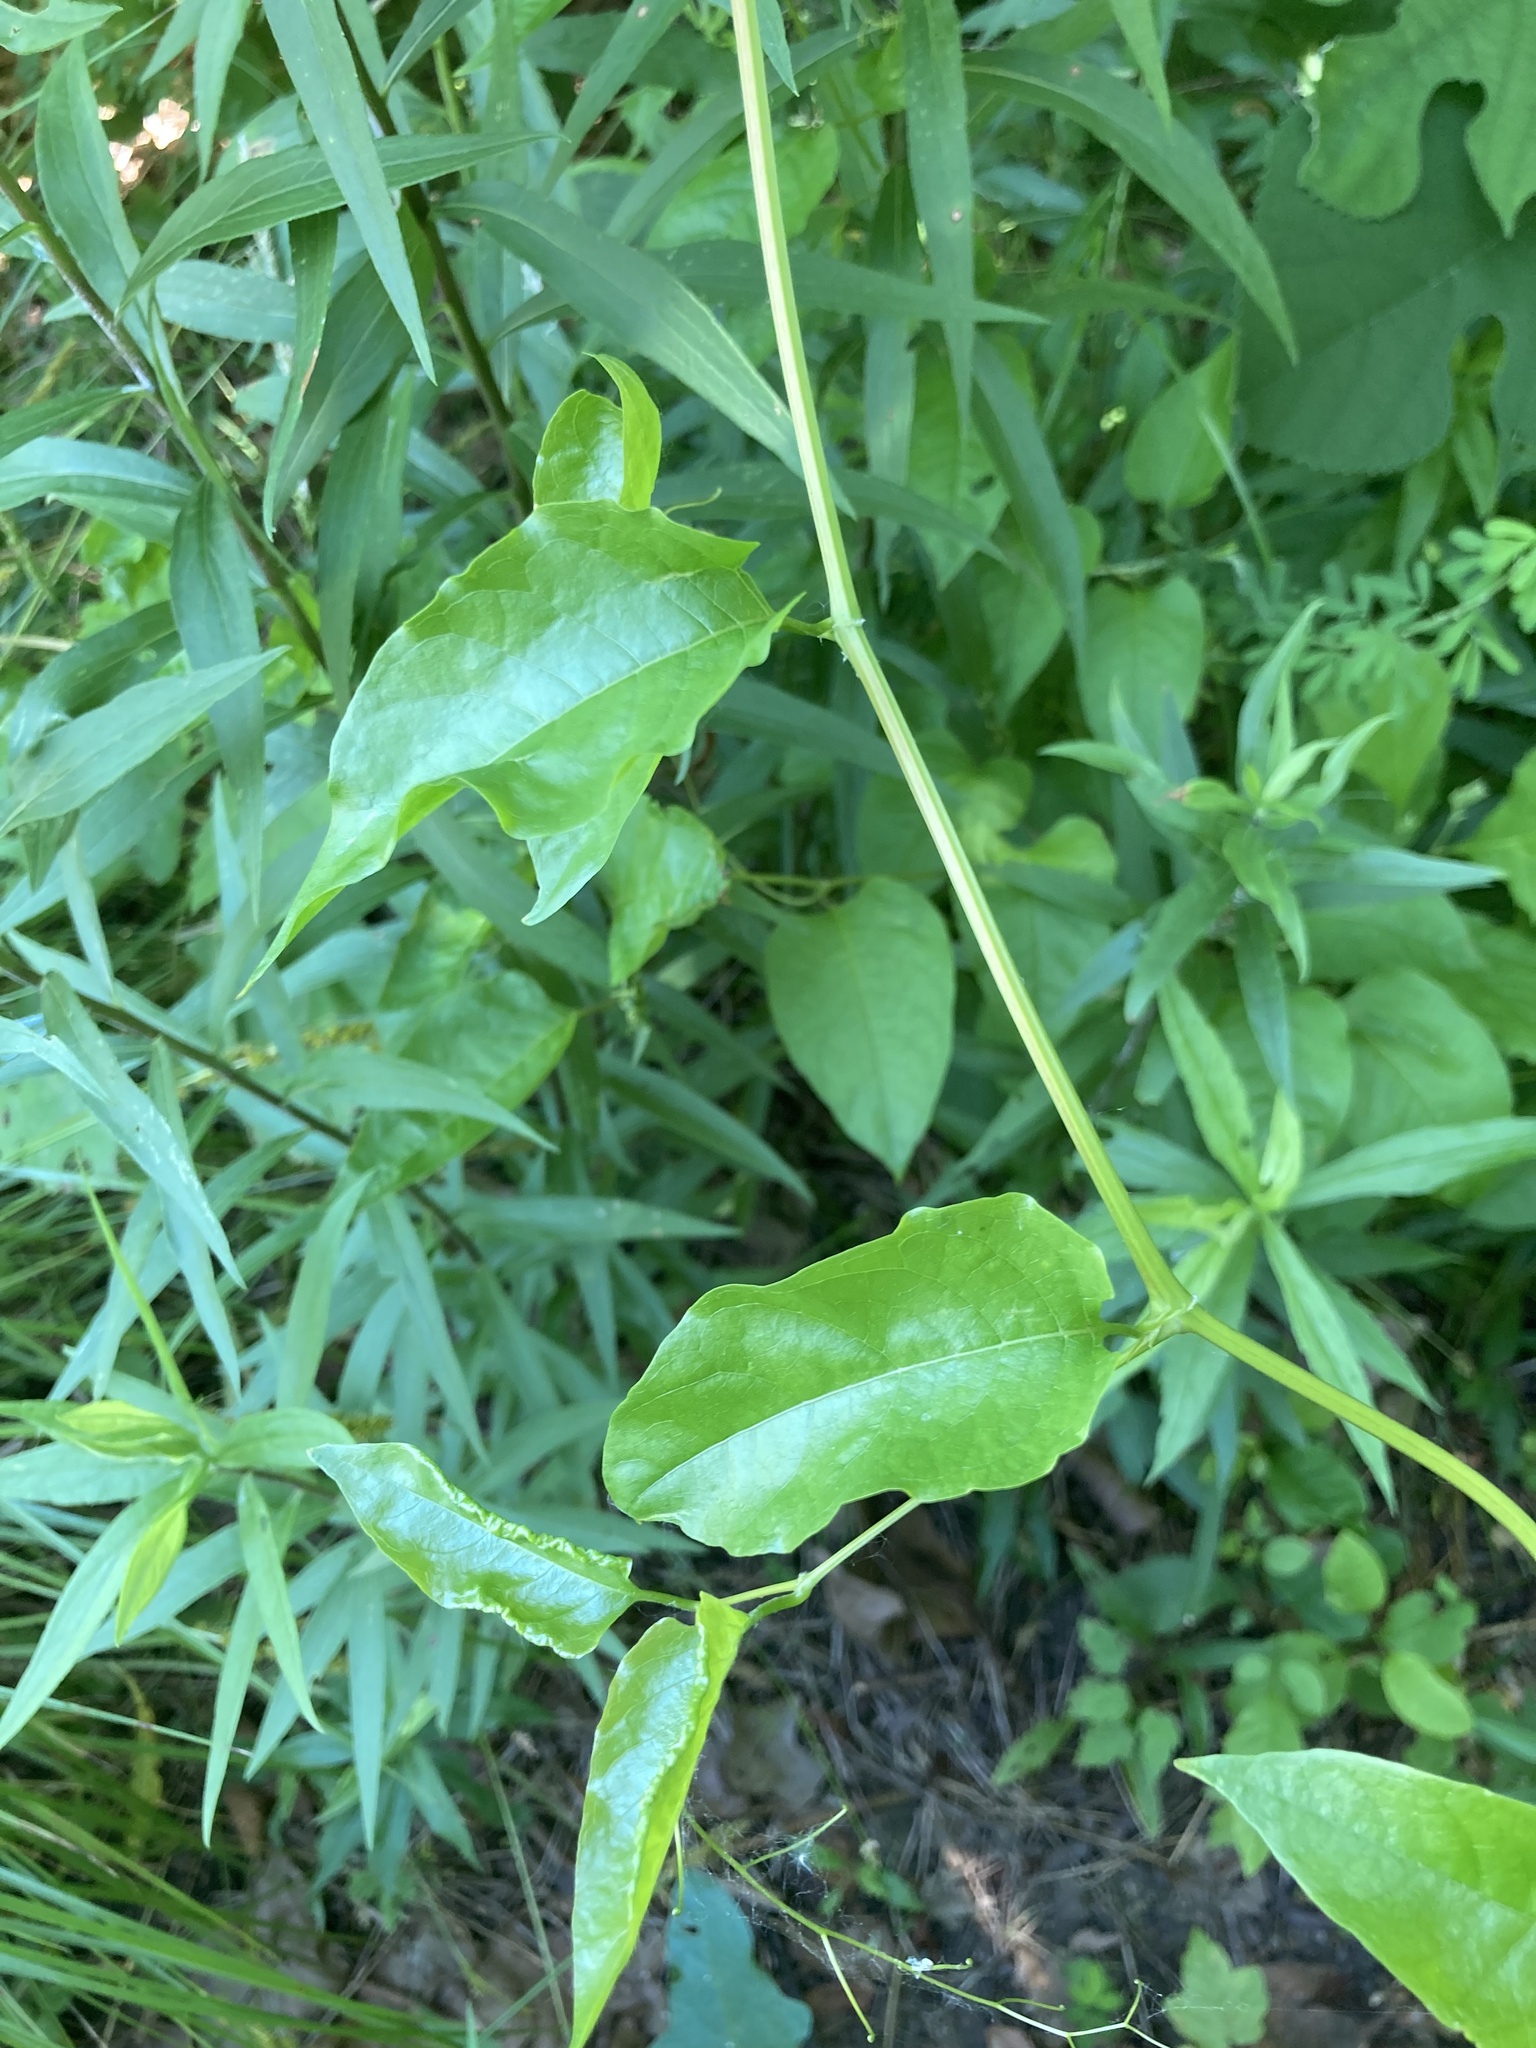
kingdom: Plantae
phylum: Tracheophyta
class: Magnoliopsida
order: Caryophyllales
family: Polygonaceae
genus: Brunnichia
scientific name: Brunnichia ovata
